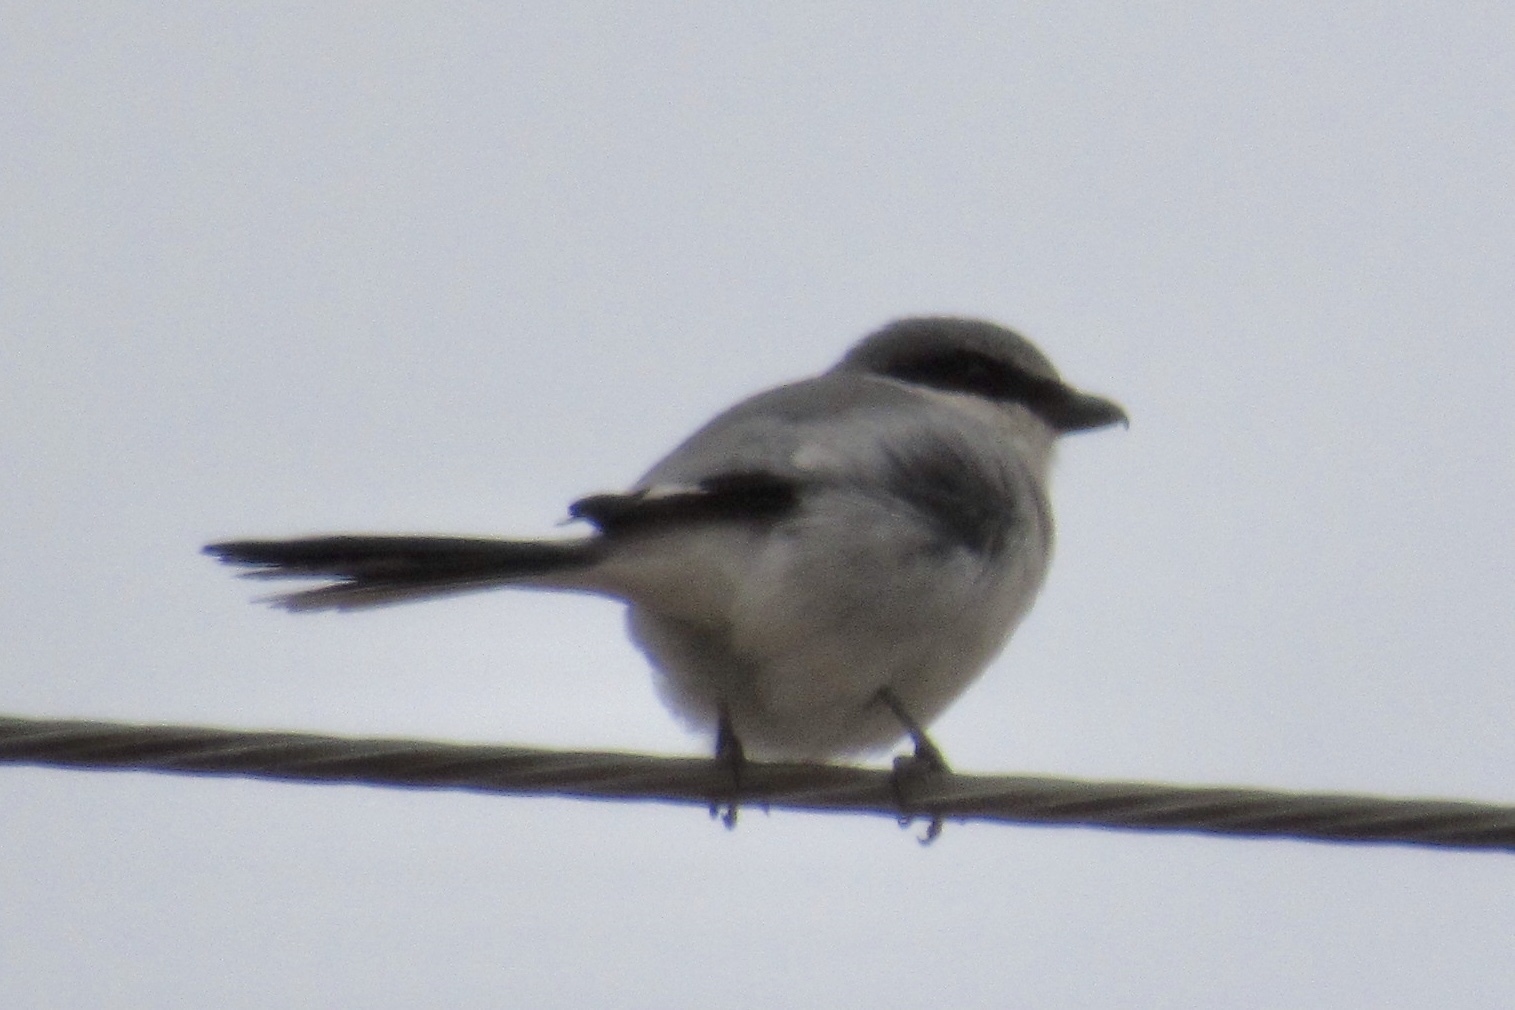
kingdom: Animalia
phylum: Chordata
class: Aves
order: Passeriformes
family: Laniidae
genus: Lanius
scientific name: Lanius ludovicianus
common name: Loggerhead shrike
